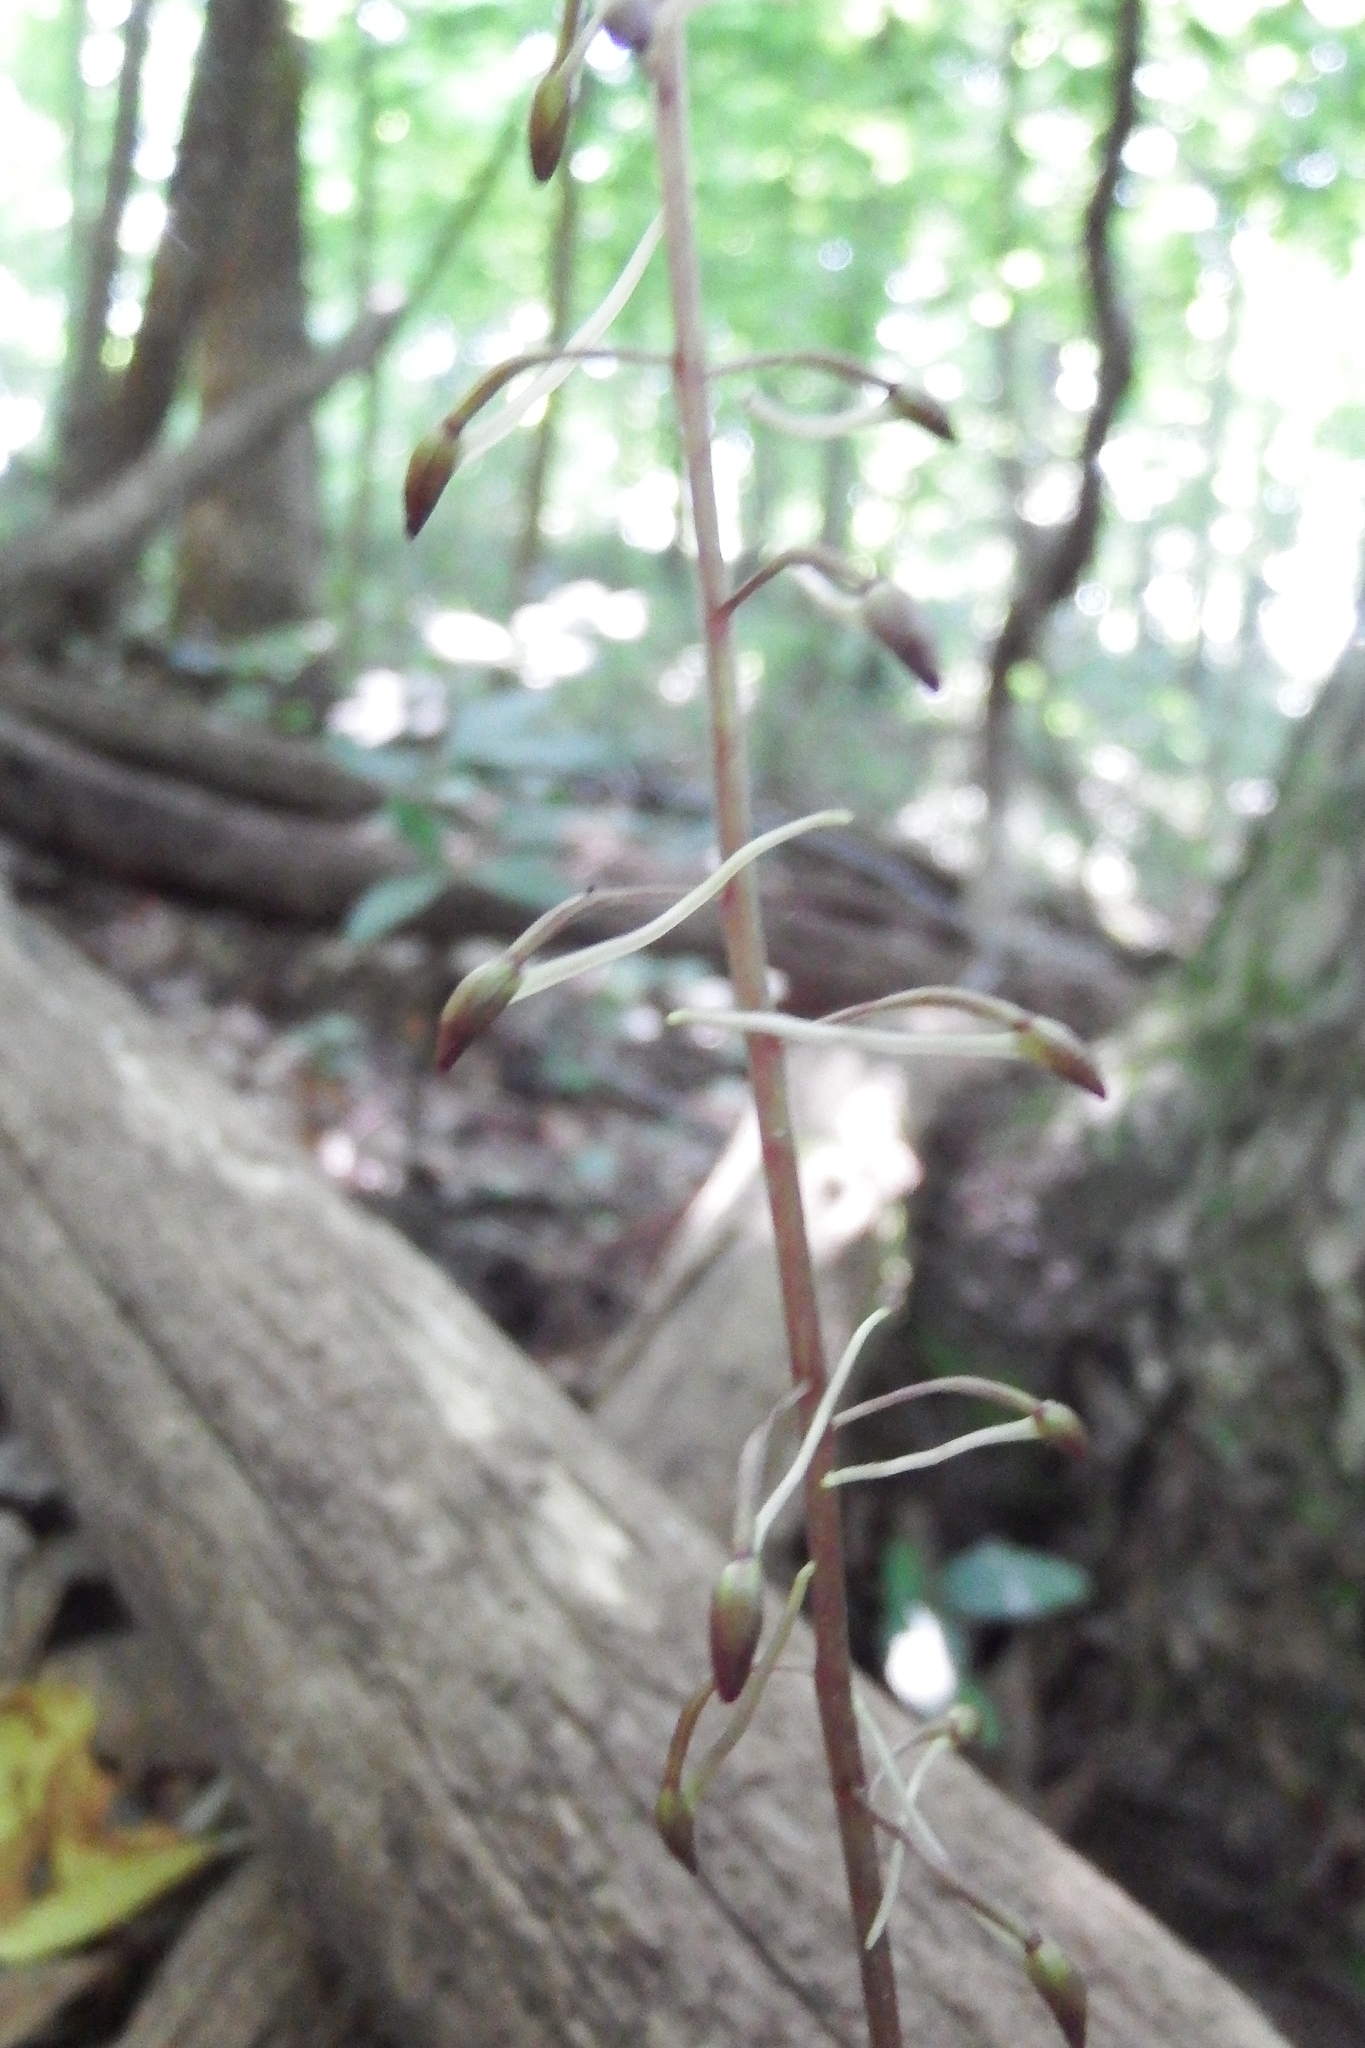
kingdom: Plantae
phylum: Tracheophyta
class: Liliopsida
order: Asparagales
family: Orchidaceae
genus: Tipularia
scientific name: Tipularia discolor
